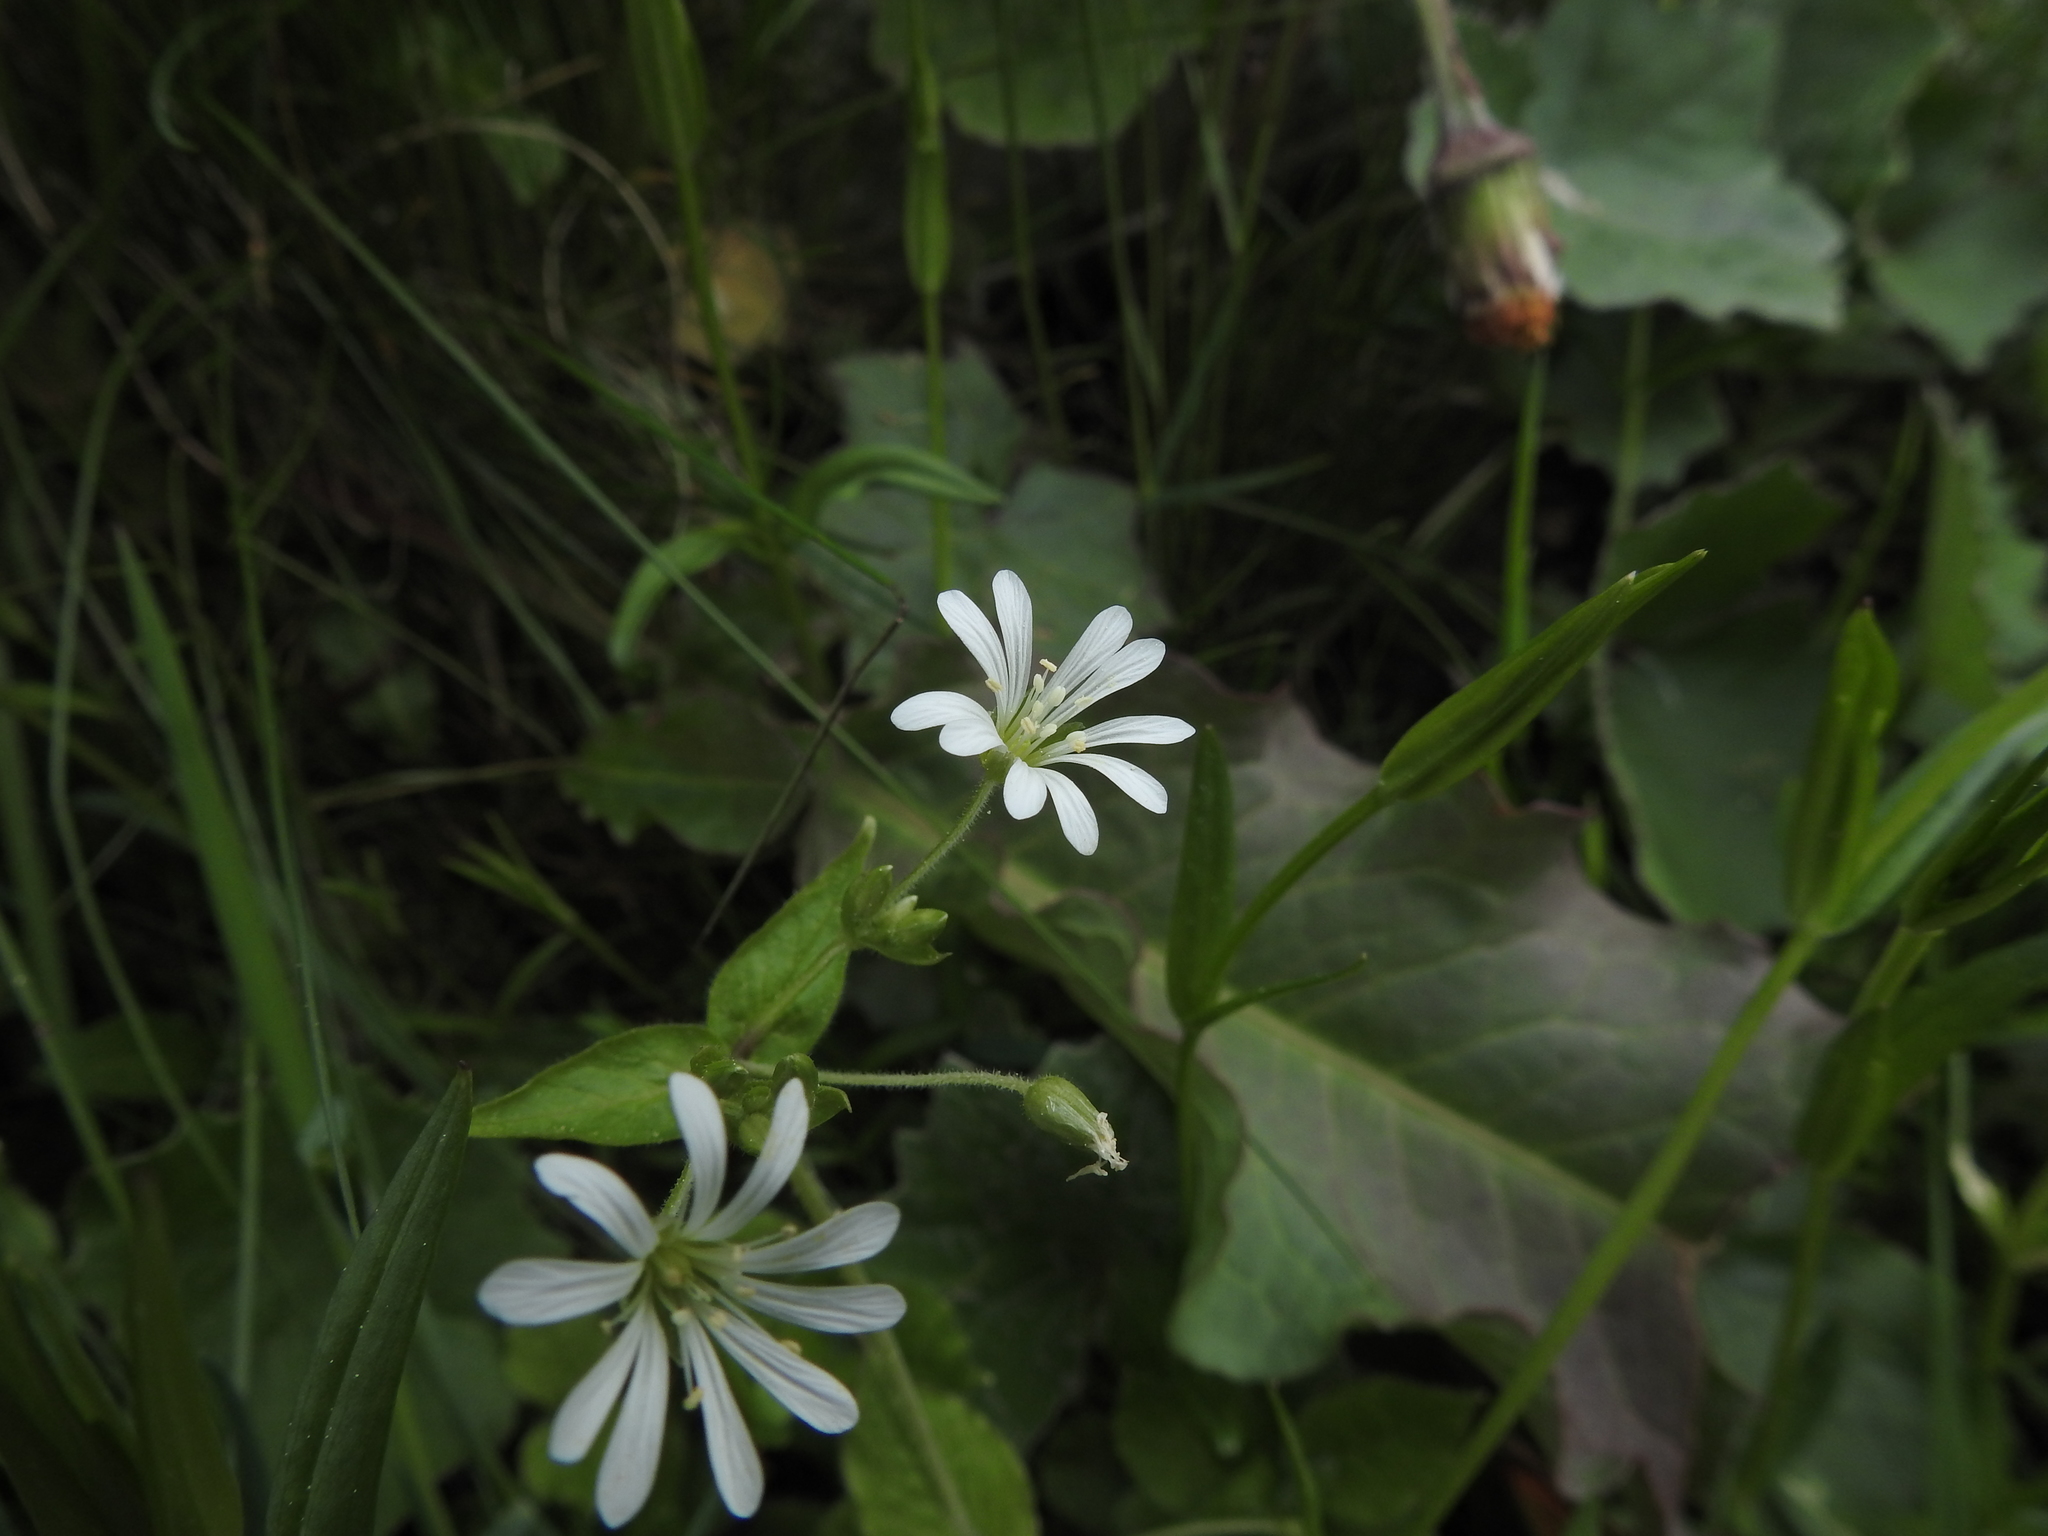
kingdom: Plantae
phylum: Tracheophyta
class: Magnoliopsida
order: Caryophyllales
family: Caryophyllaceae
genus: Stellaria
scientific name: Stellaria nemorum
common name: Wood stitchwort
